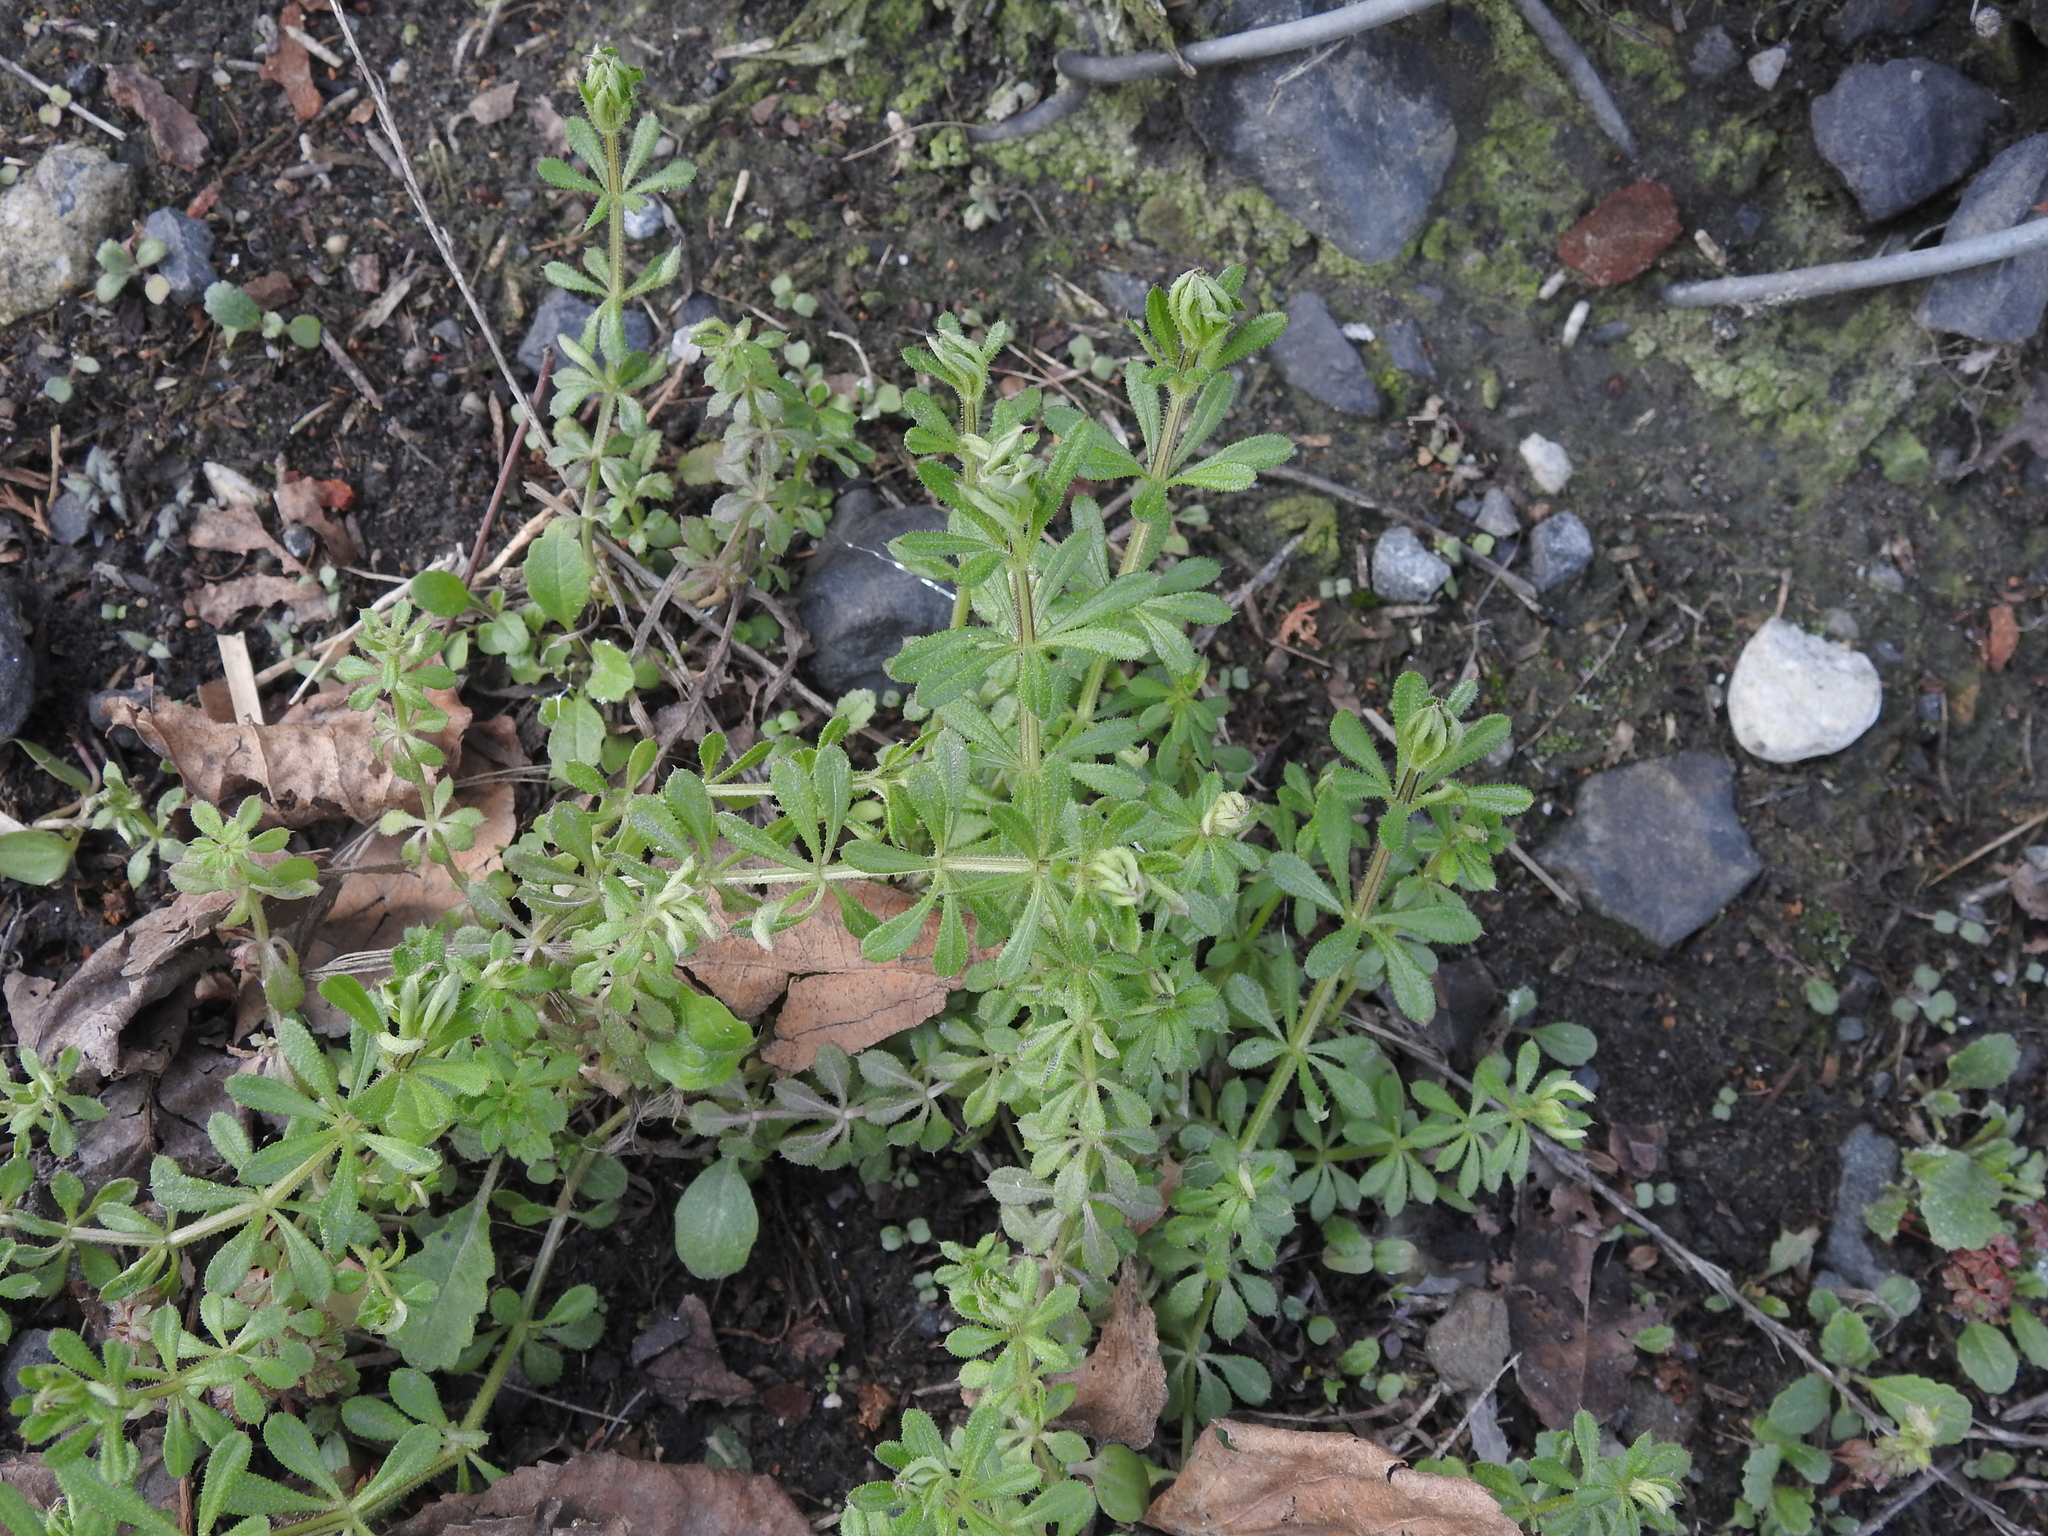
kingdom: Plantae
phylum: Tracheophyta
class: Magnoliopsida
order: Gentianales
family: Rubiaceae
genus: Galium
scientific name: Galium aparine
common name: Cleavers
